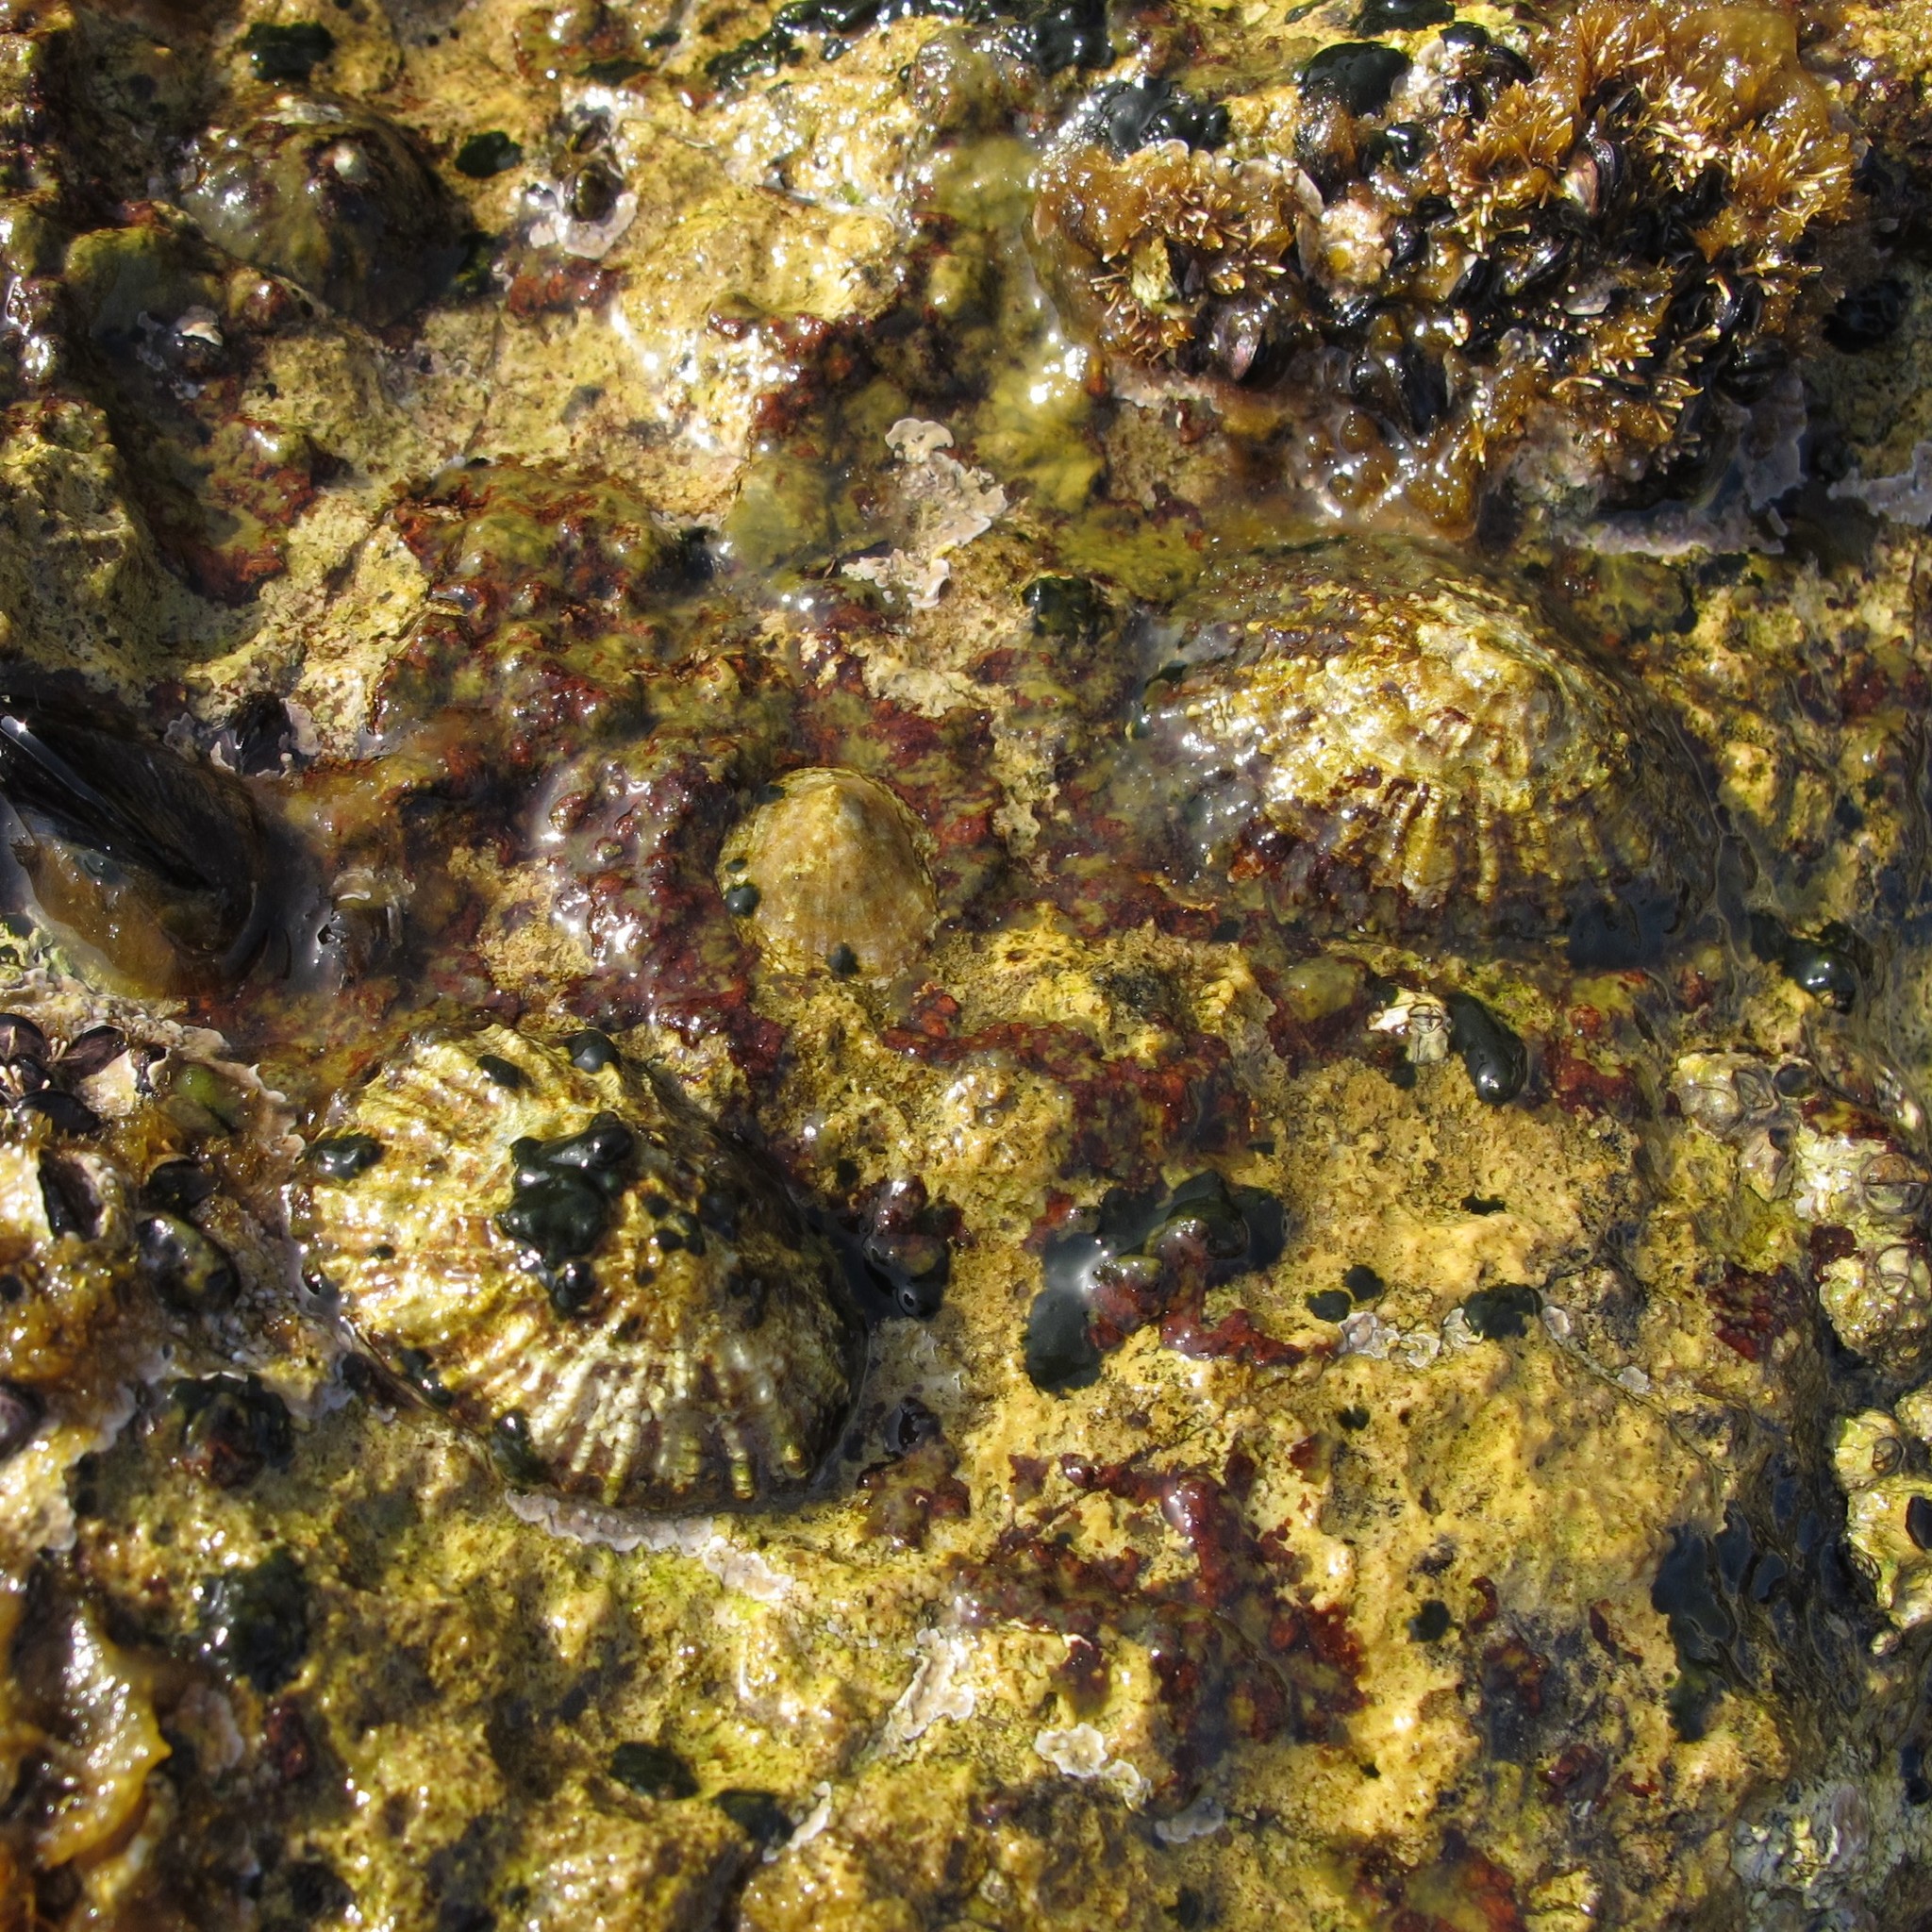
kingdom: Animalia
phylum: Mollusca
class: Gastropoda
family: Patellidae
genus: Patella
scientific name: Patella caerulea
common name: Mediterranean limpet
